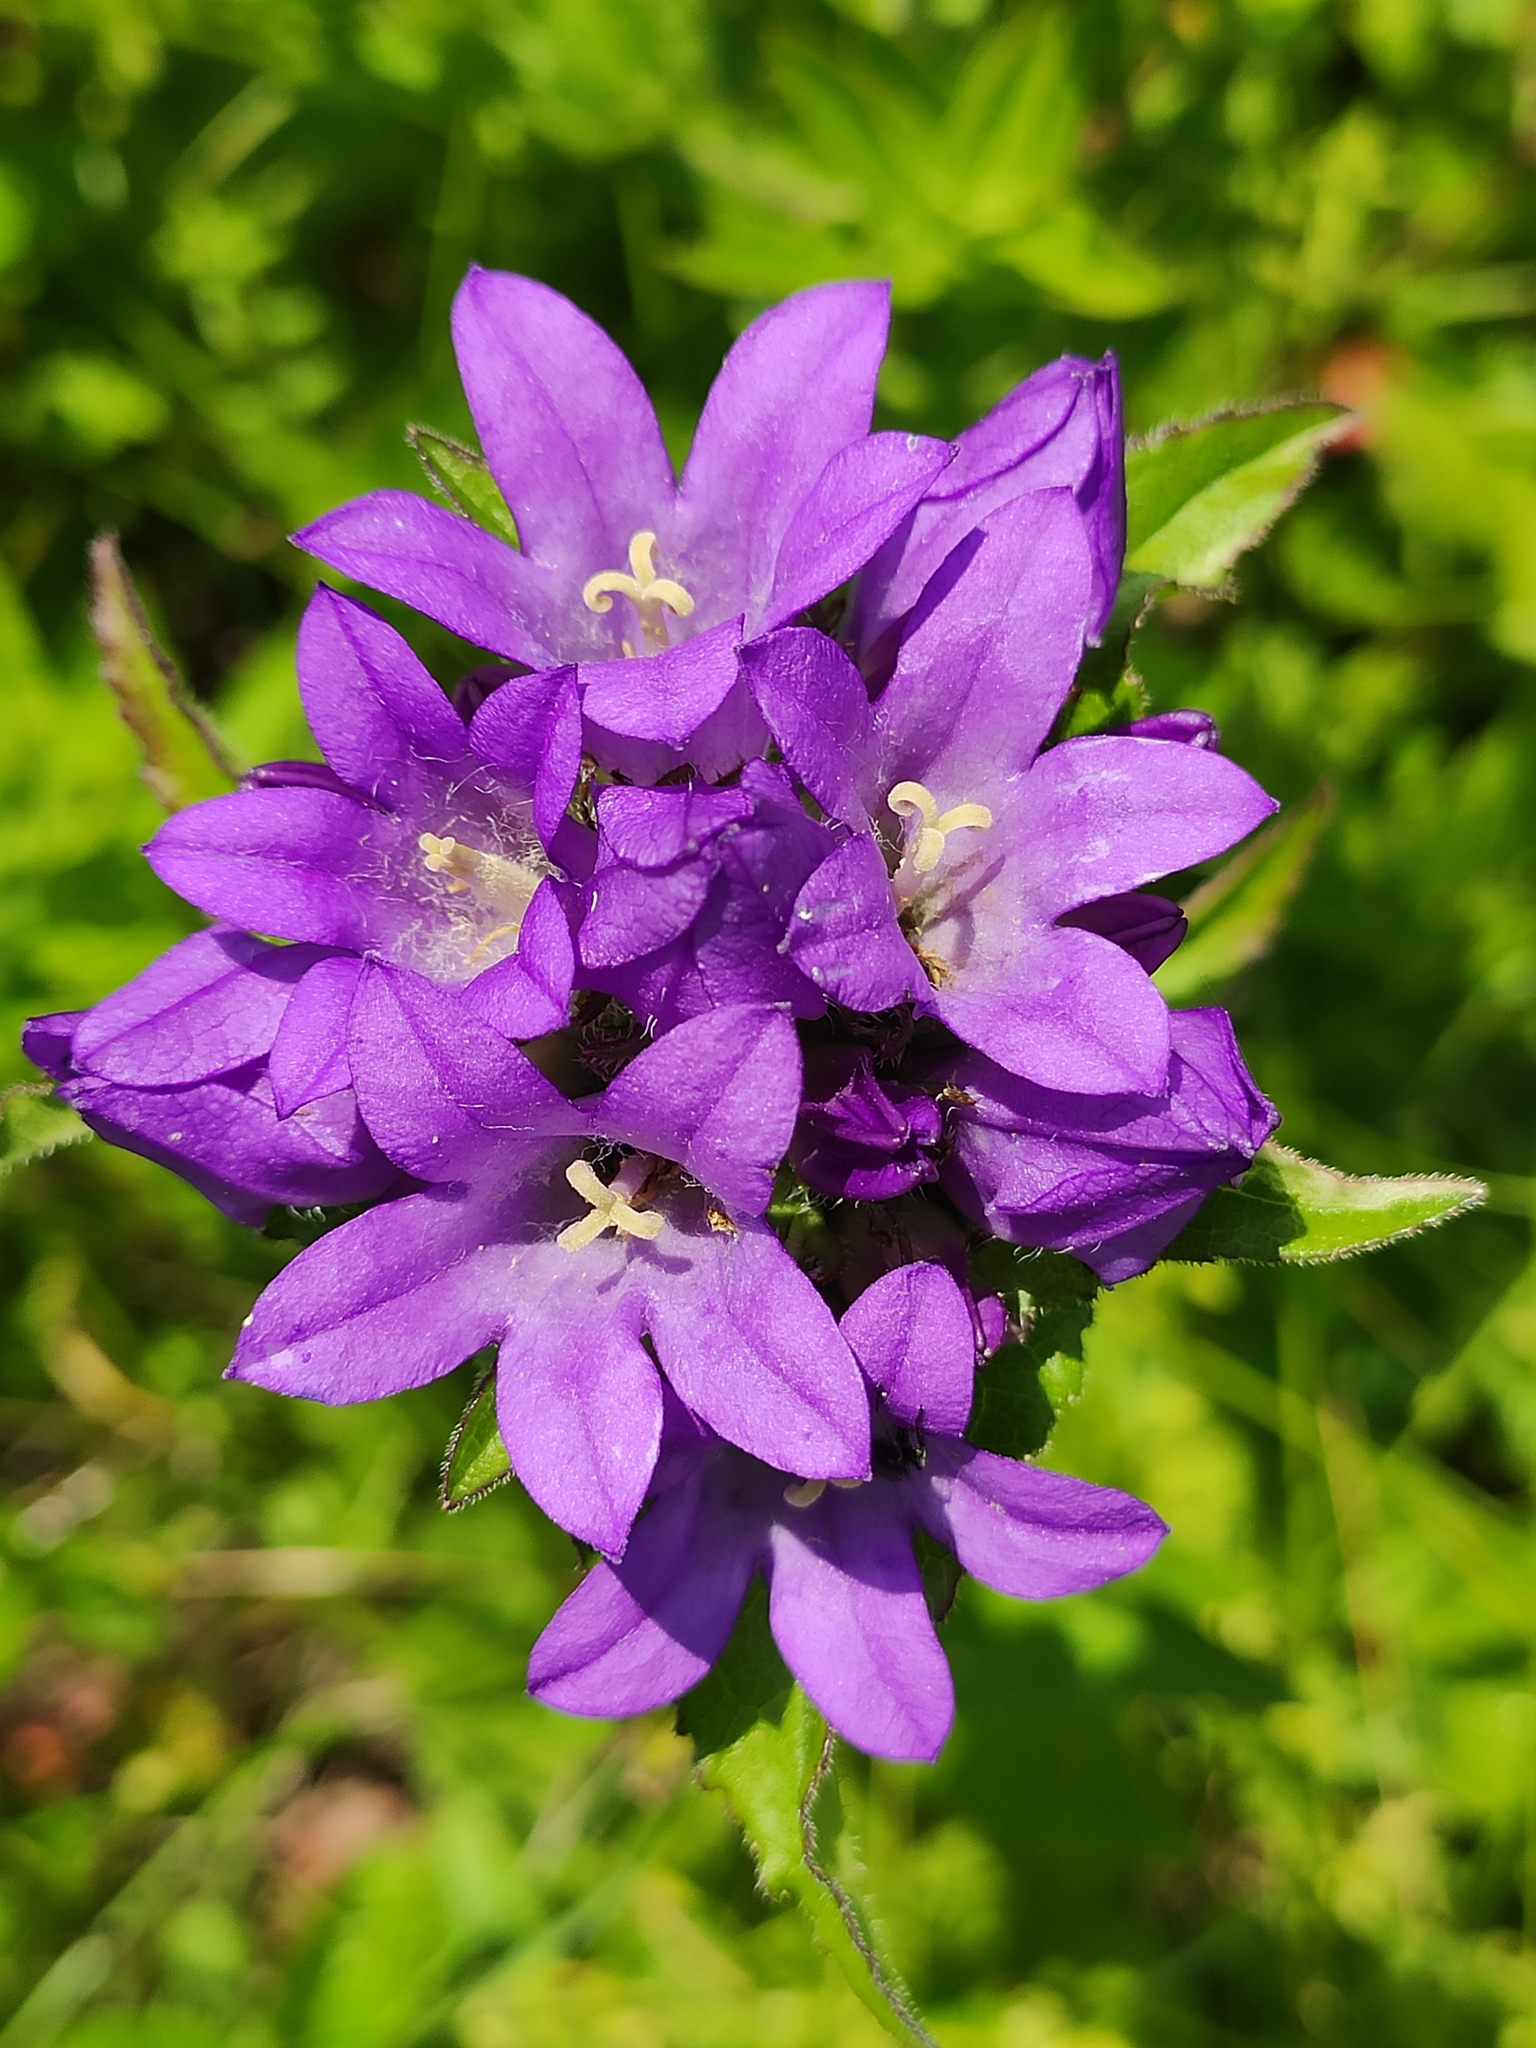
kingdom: Plantae
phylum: Tracheophyta
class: Magnoliopsida
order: Asterales
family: Campanulaceae
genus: Campanula
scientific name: Campanula glomerata
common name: Clustered bellflower
